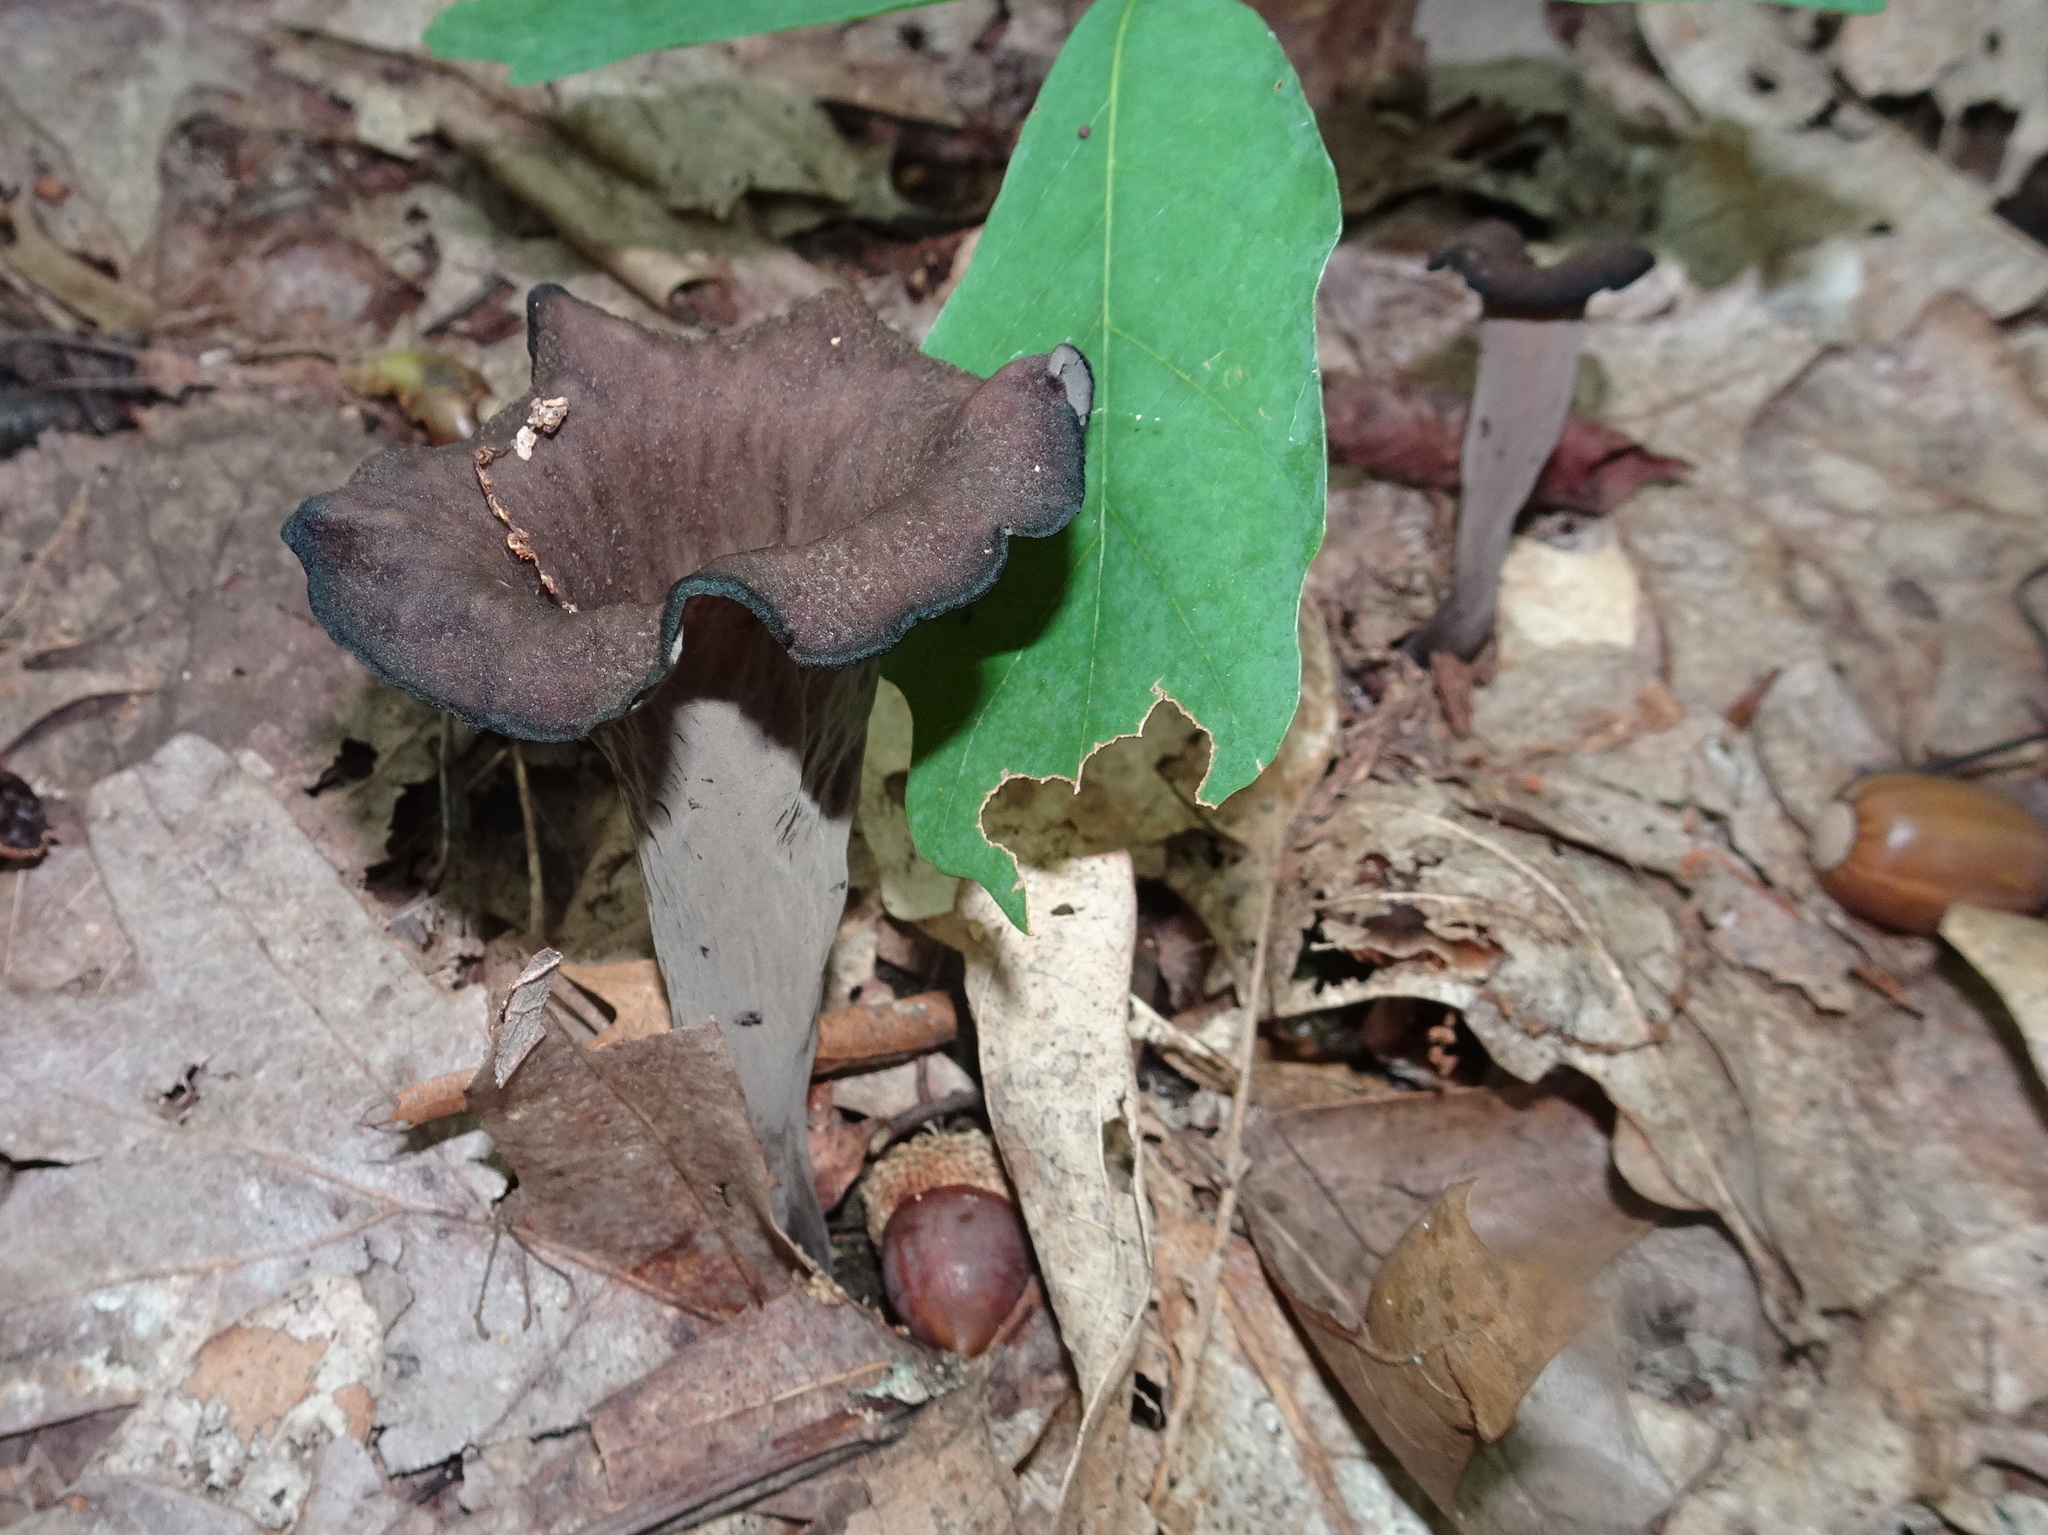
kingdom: Fungi
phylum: Basidiomycota
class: Agaricomycetes
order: Cantharellales
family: Hydnaceae
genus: Craterellus
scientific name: Craterellus cornucopioides
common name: Horn of plenty
